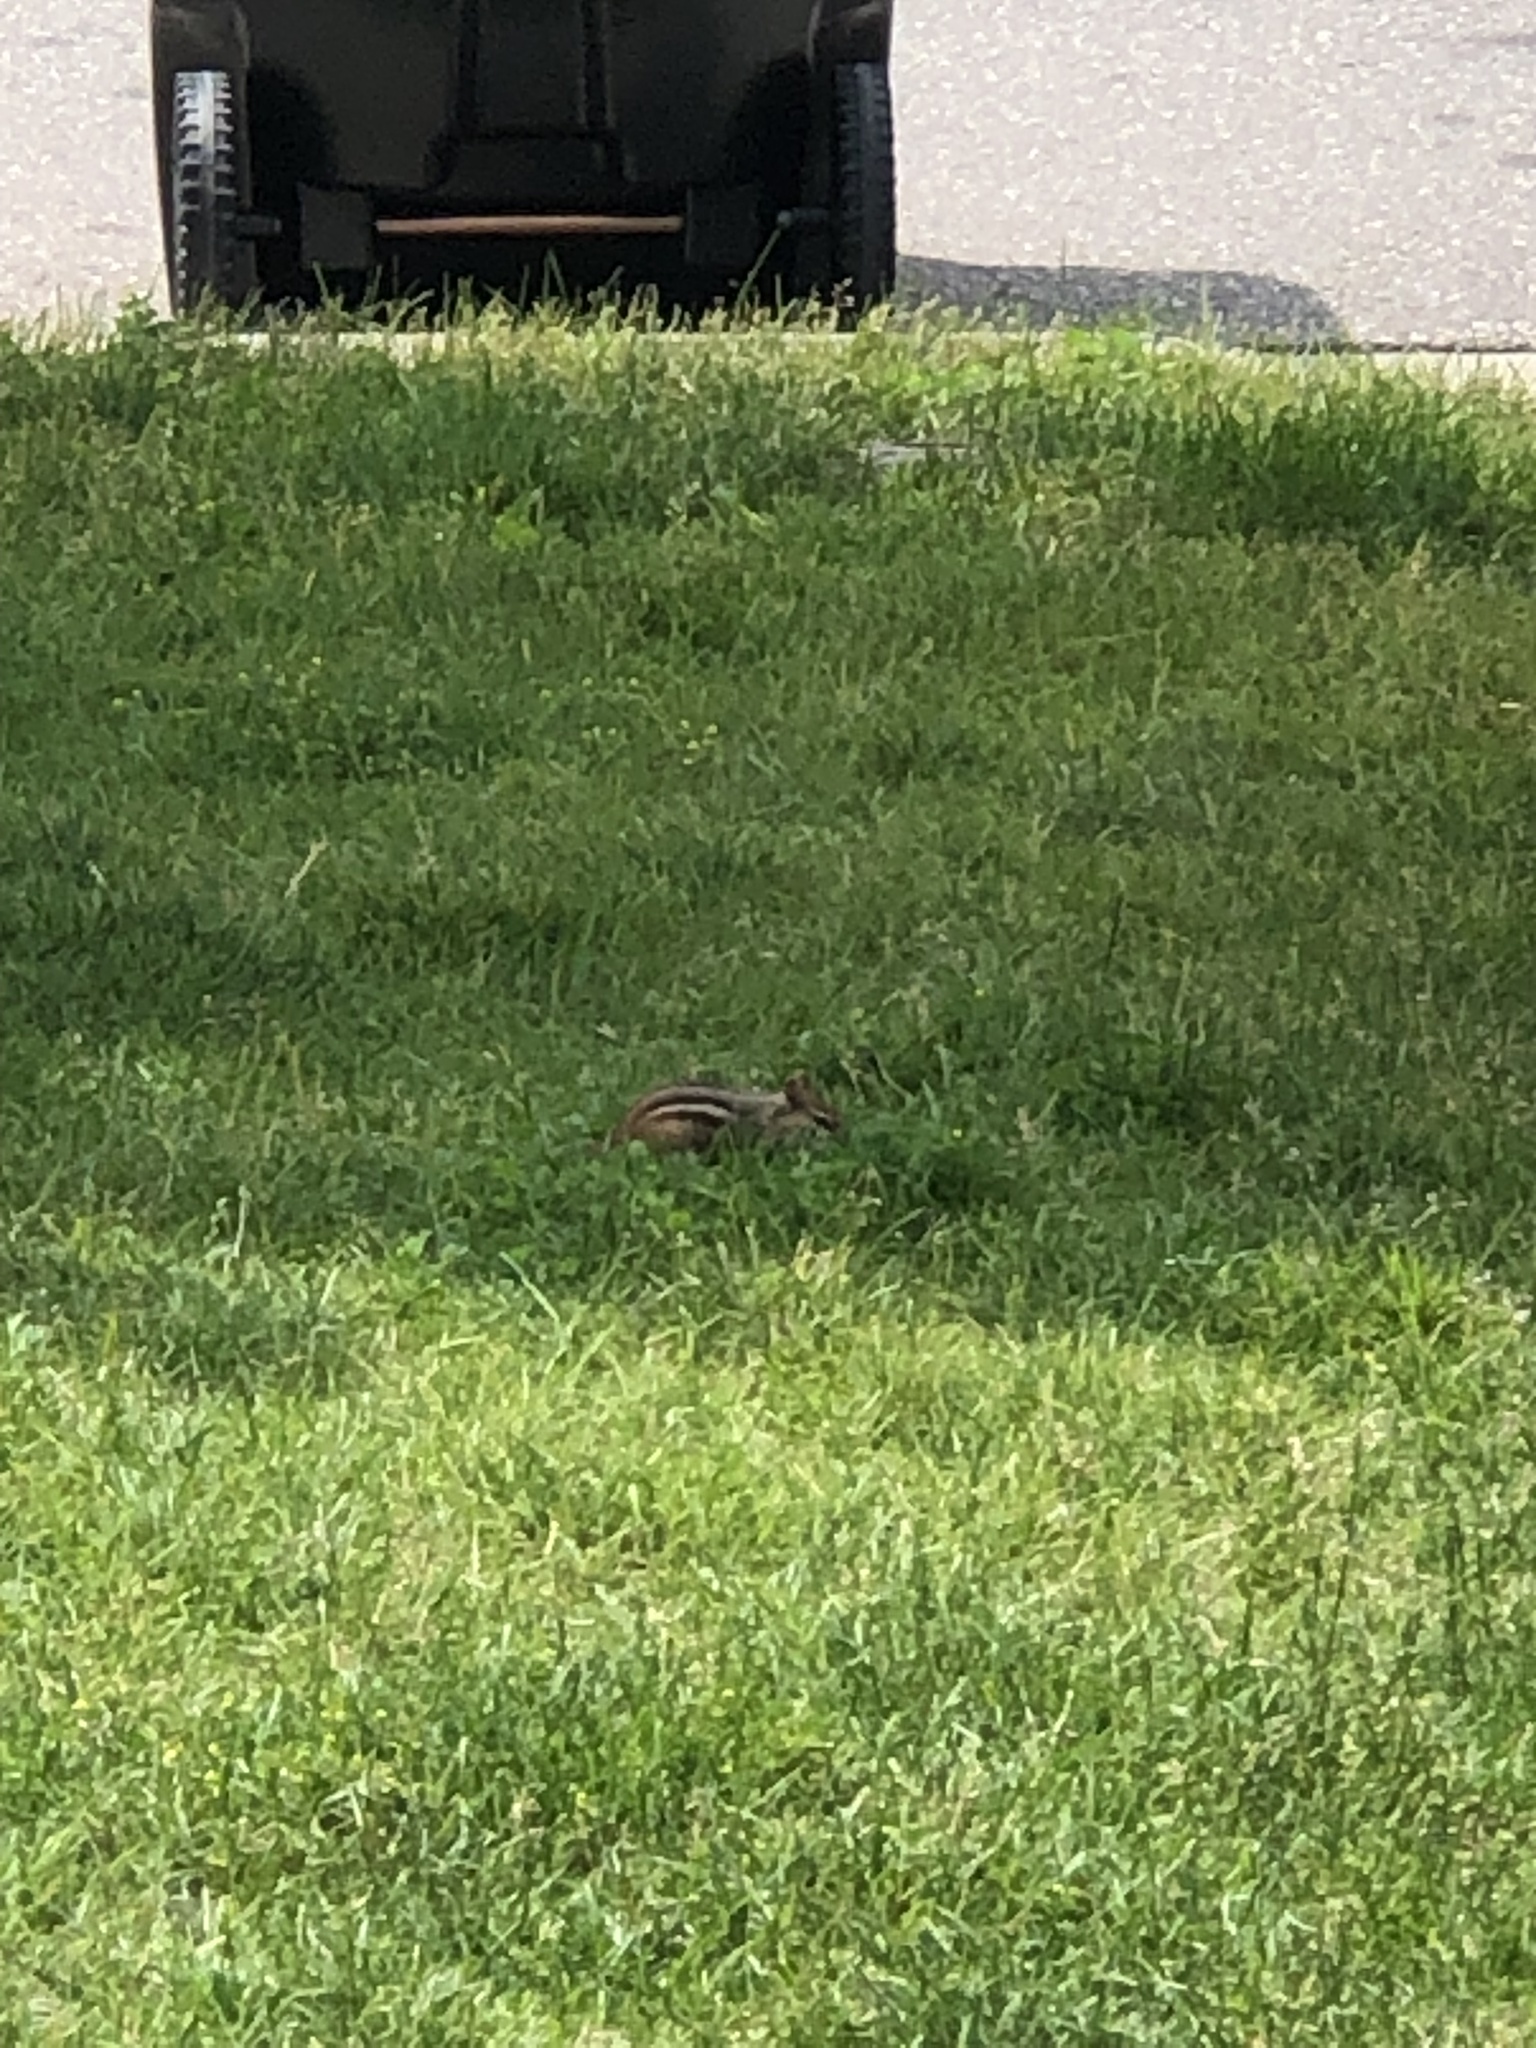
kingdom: Animalia
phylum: Chordata
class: Mammalia
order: Rodentia
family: Sciuridae
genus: Tamias
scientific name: Tamias striatus
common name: Eastern chipmunk
